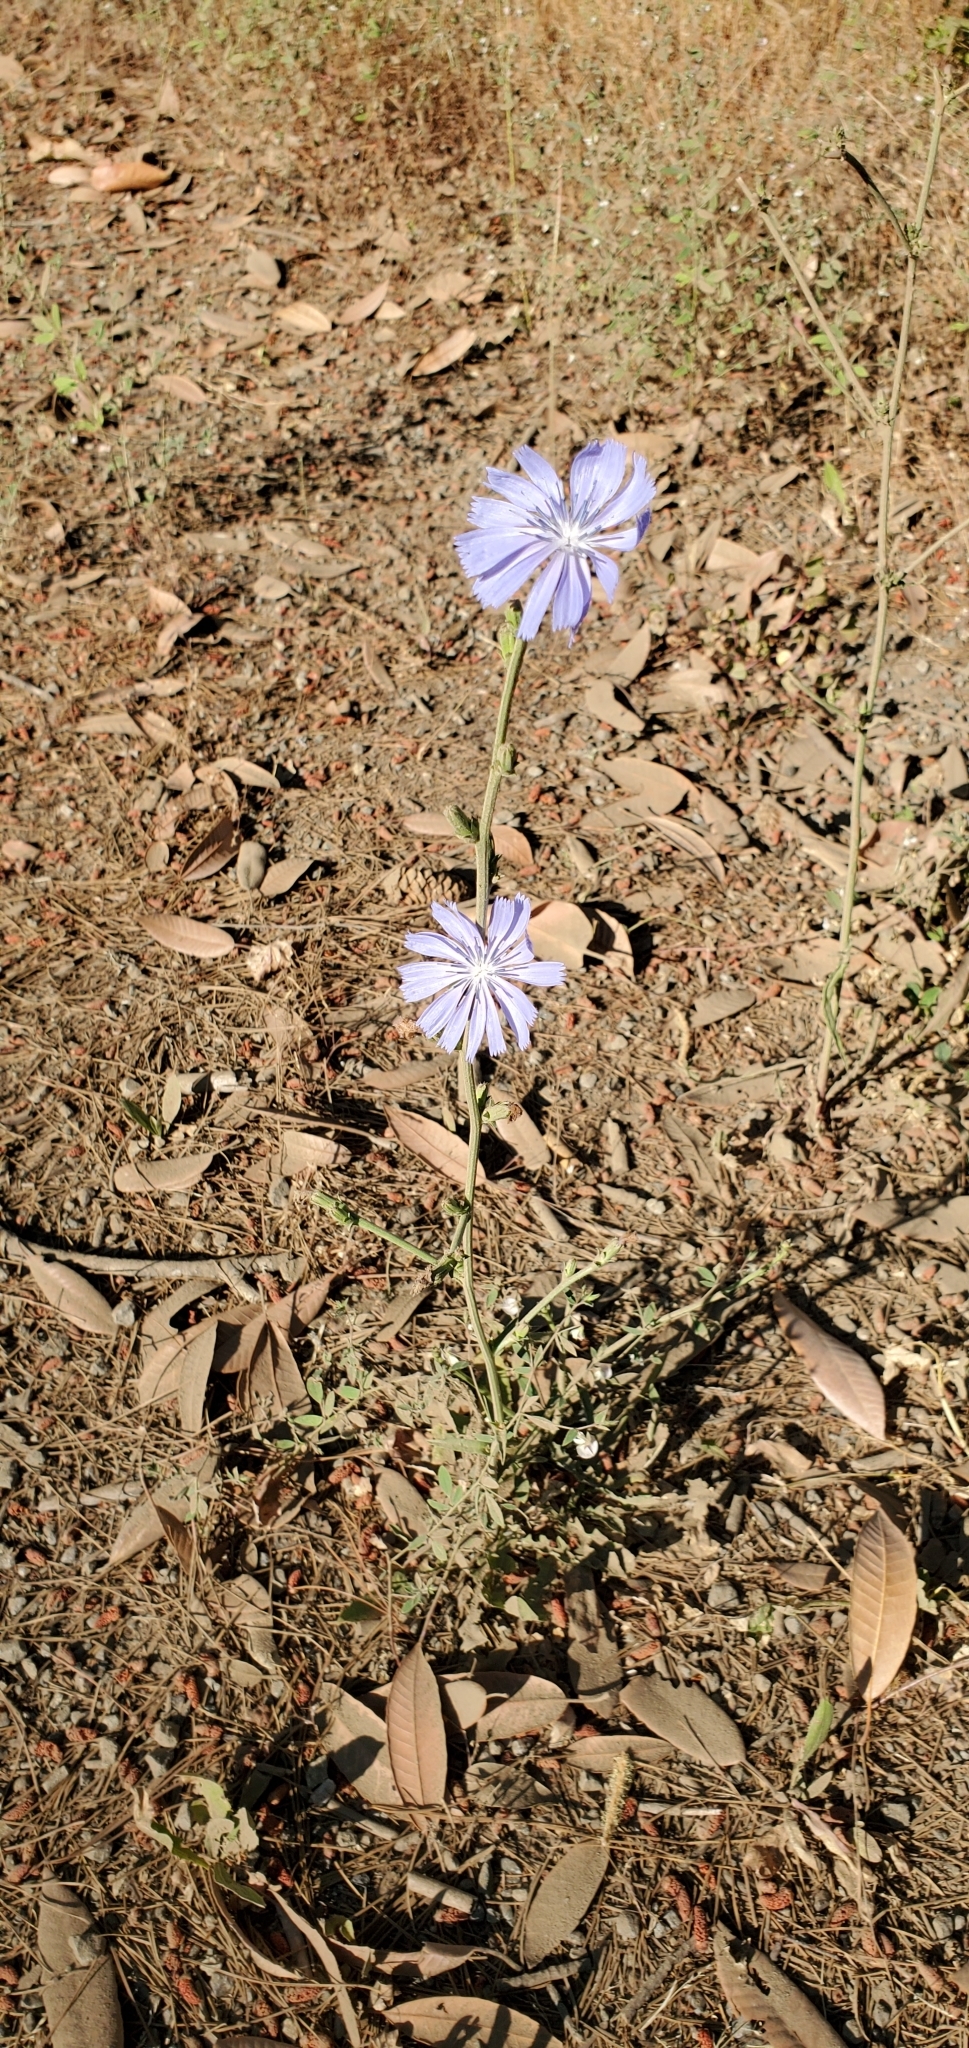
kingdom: Plantae
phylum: Tracheophyta
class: Magnoliopsida
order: Asterales
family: Asteraceae
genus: Cichorium
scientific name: Cichorium intybus
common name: Chicory
